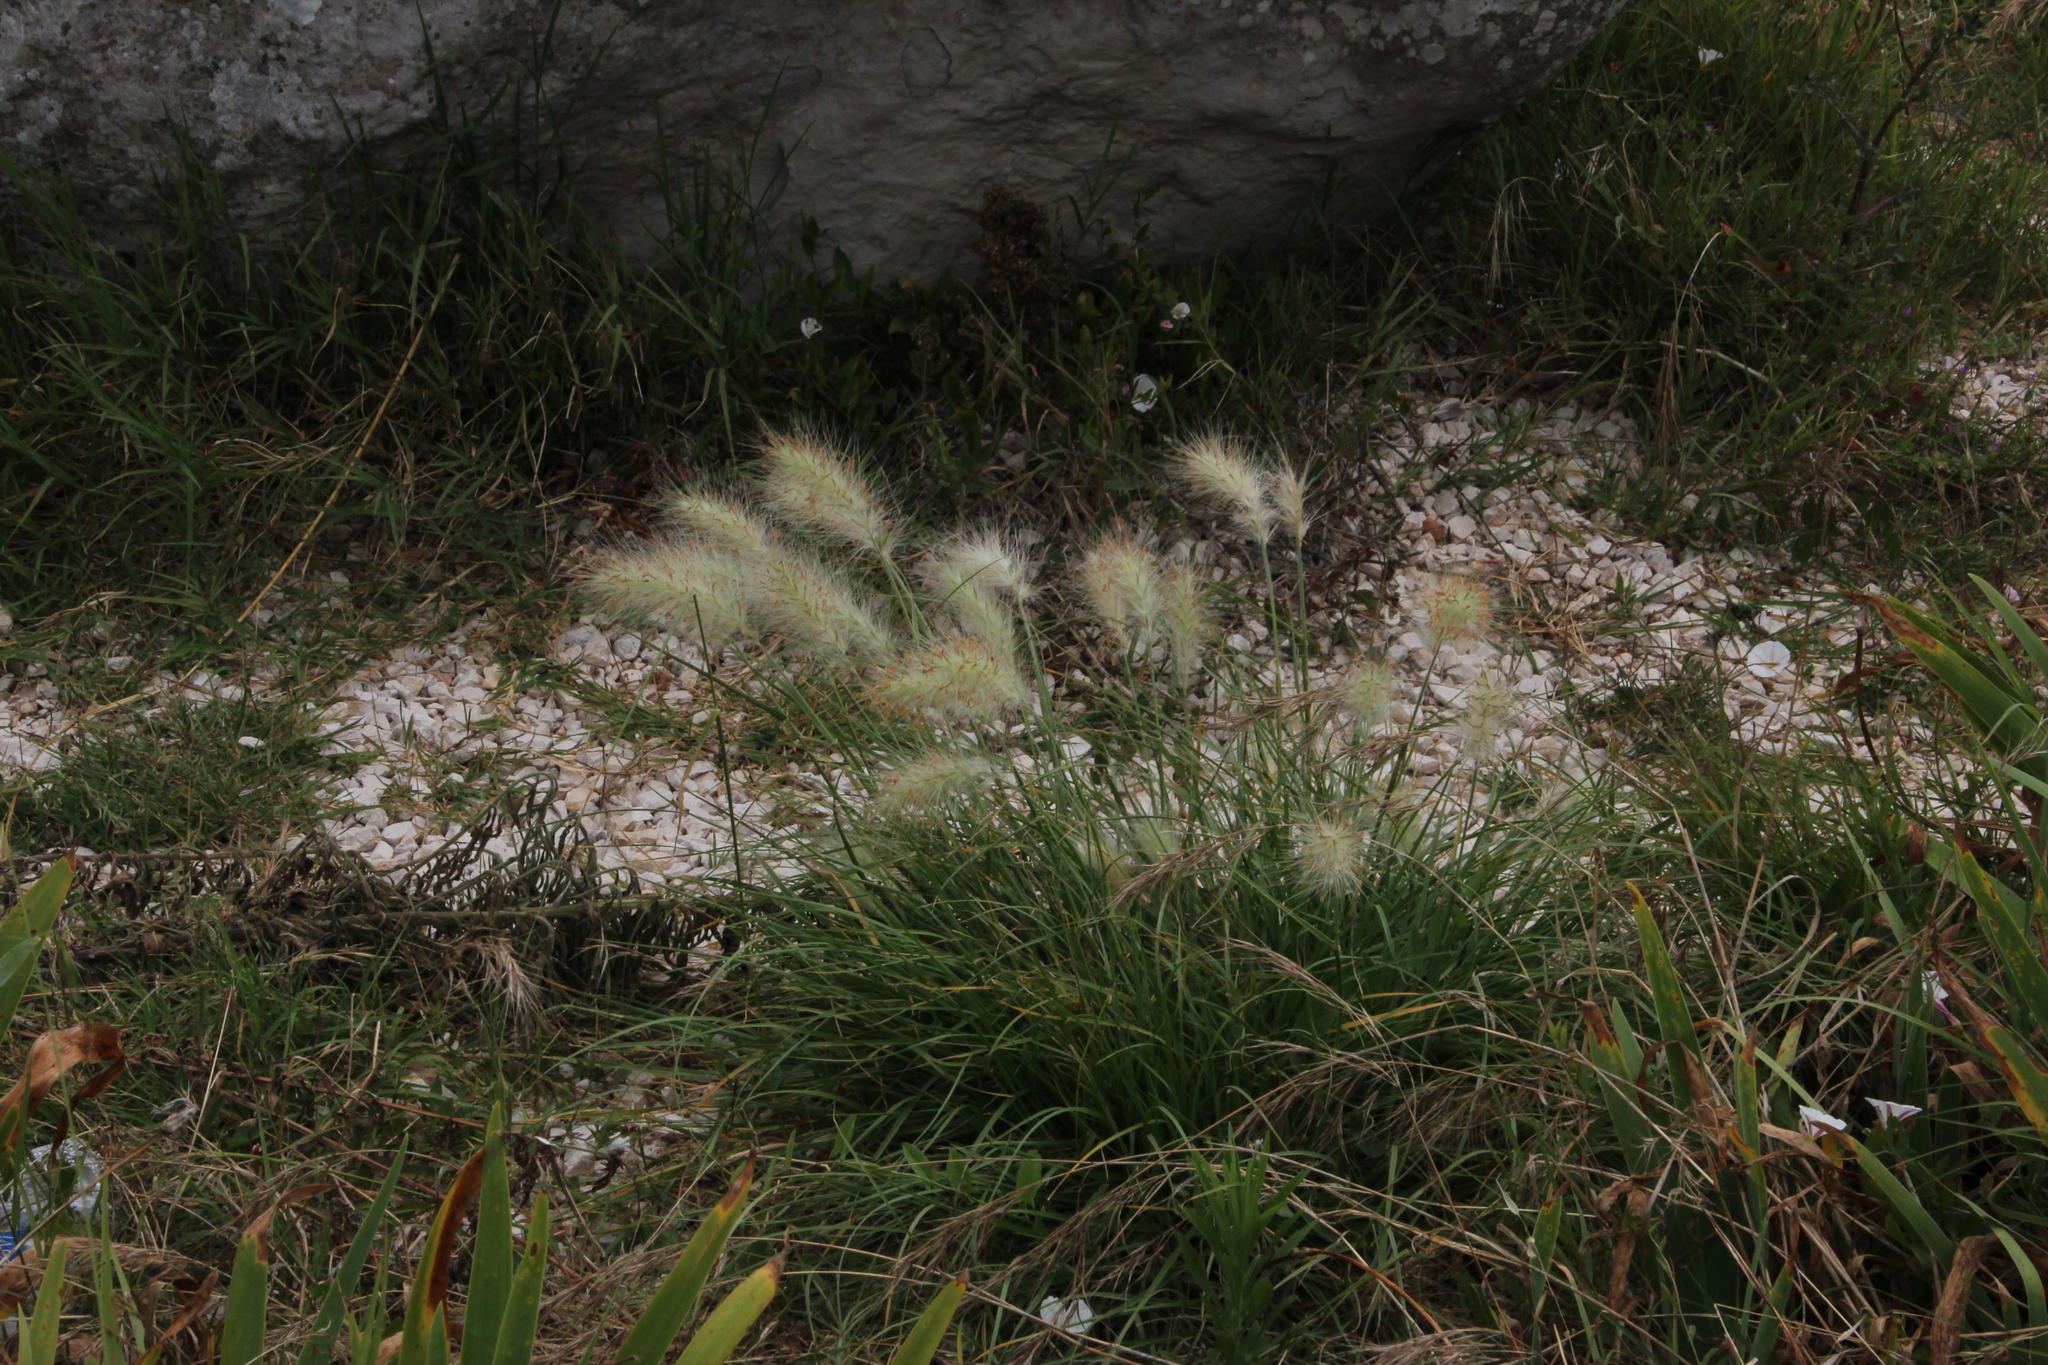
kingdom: Plantae
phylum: Tracheophyta
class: Liliopsida
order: Poales
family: Poaceae
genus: Polypogon
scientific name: Polypogon monspeliensis
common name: Annual rabbitsfoot grass
